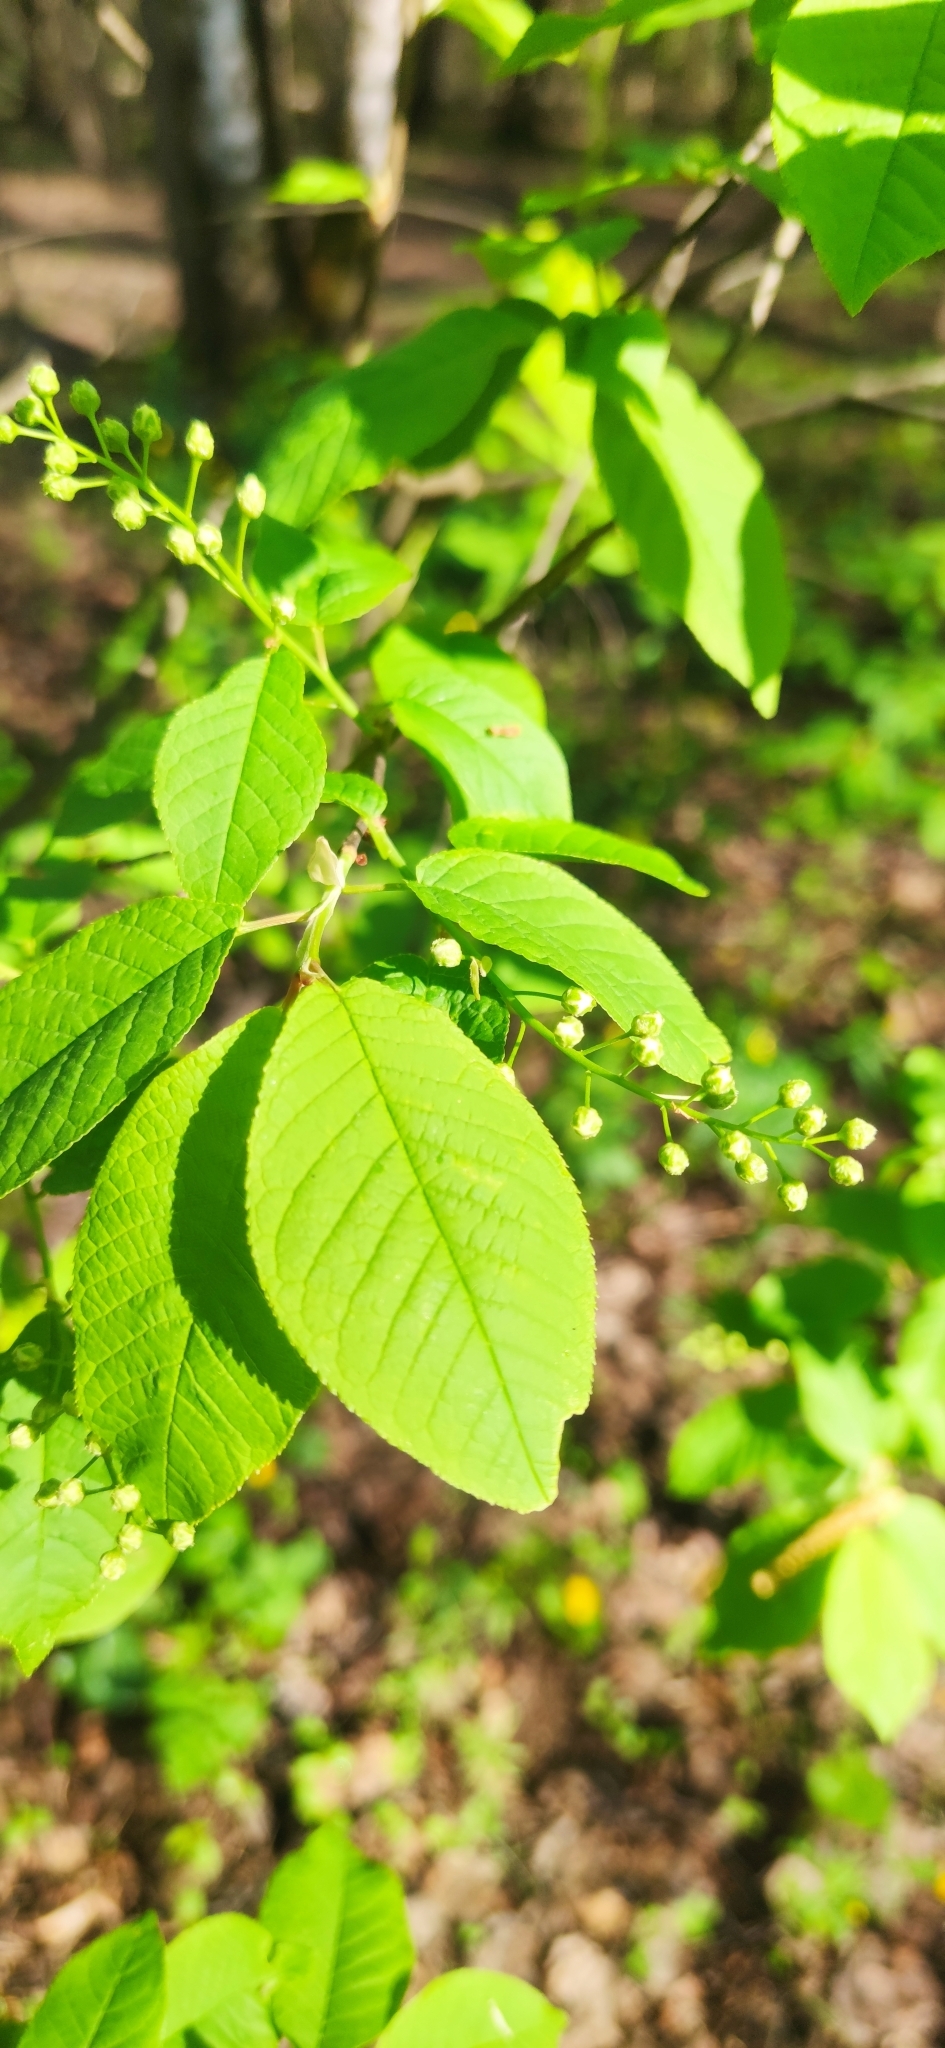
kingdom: Plantae
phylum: Tracheophyta
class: Magnoliopsida
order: Rosales
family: Rosaceae
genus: Prunus
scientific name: Prunus padus
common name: Bird cherry
